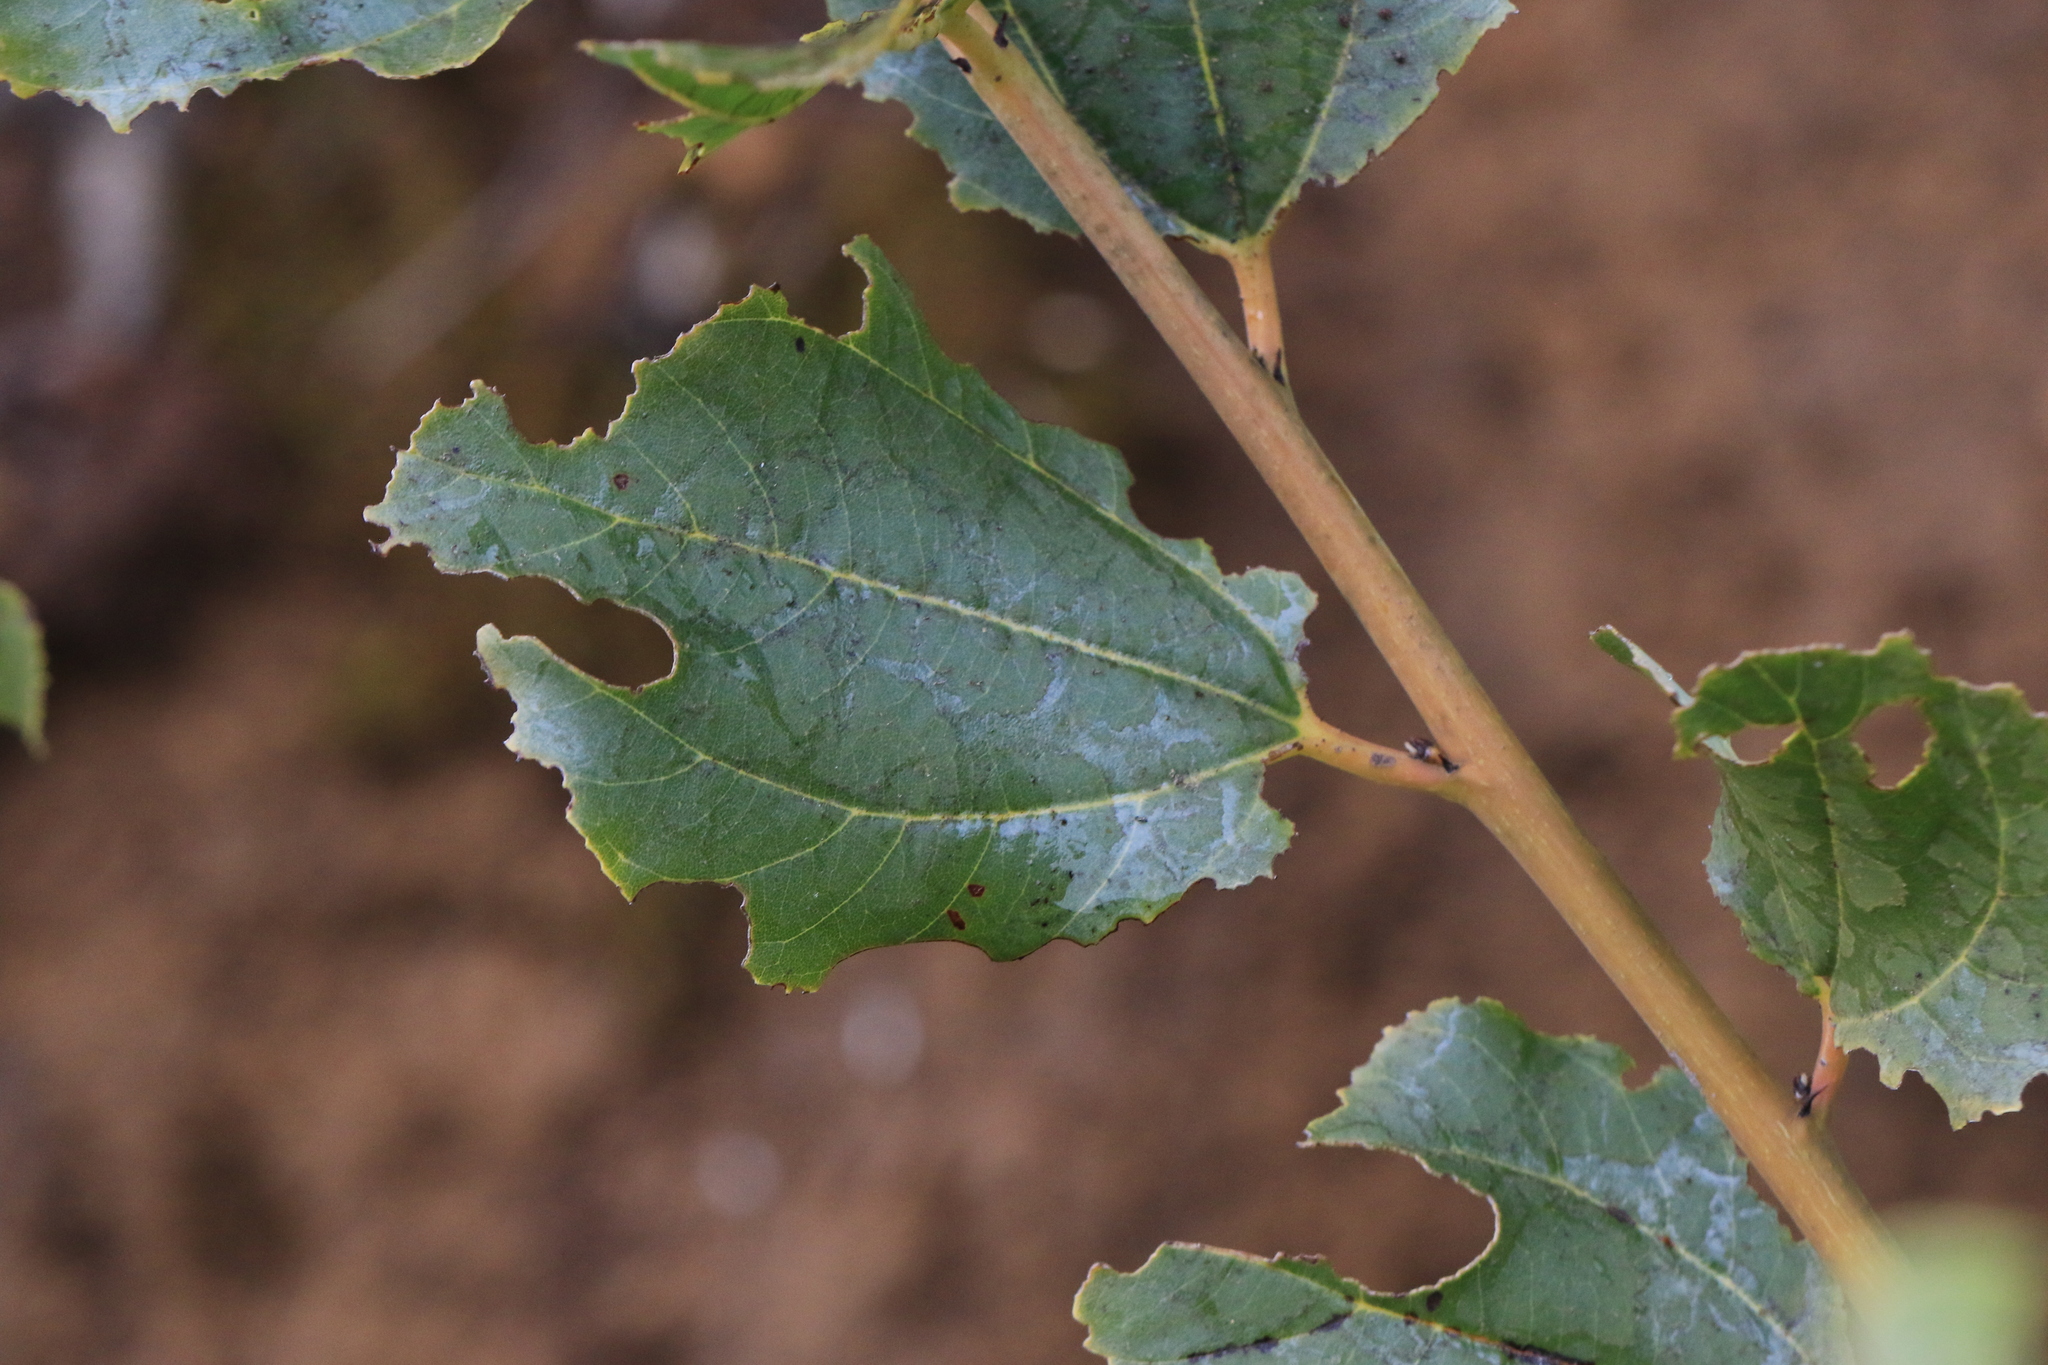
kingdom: Plantae
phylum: Tracheophyta
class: Magnoliopsida
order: Rosales
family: Rhamnaceae
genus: Ceanothus
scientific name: Ceanothus velutinus
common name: Snowbrush
